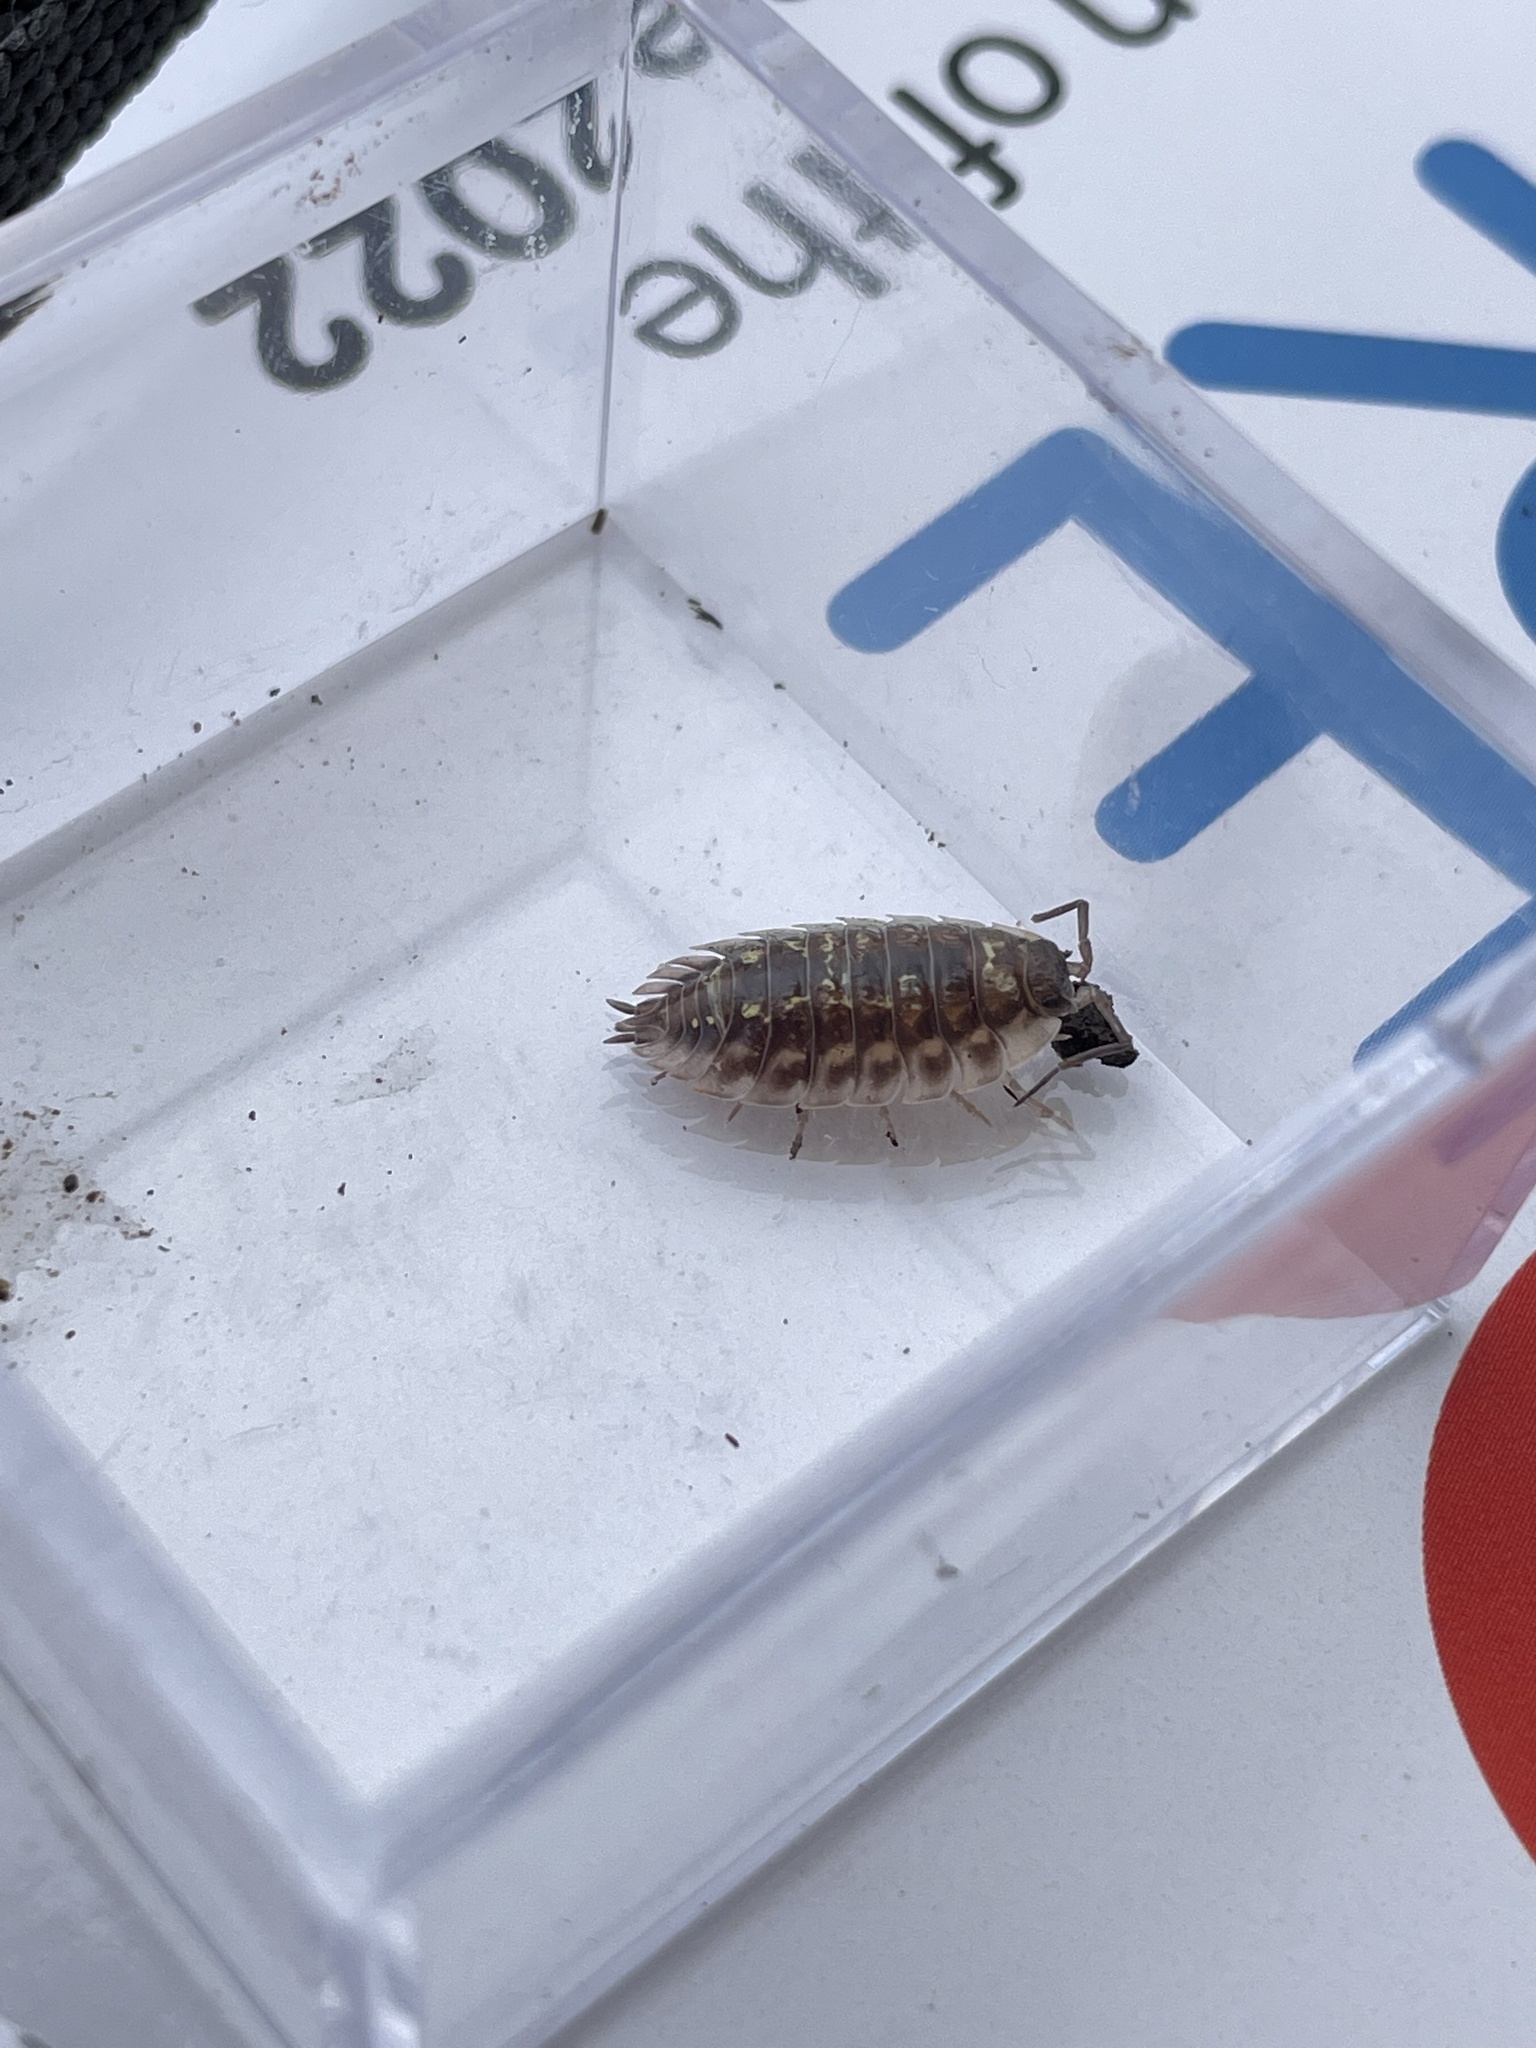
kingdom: Animalia
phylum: Arthropoda
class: Malacostraca
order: Isopoda
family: Oniscidae
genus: Oniscus
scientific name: Oniscus asellus
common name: Common shiny woodlouse
